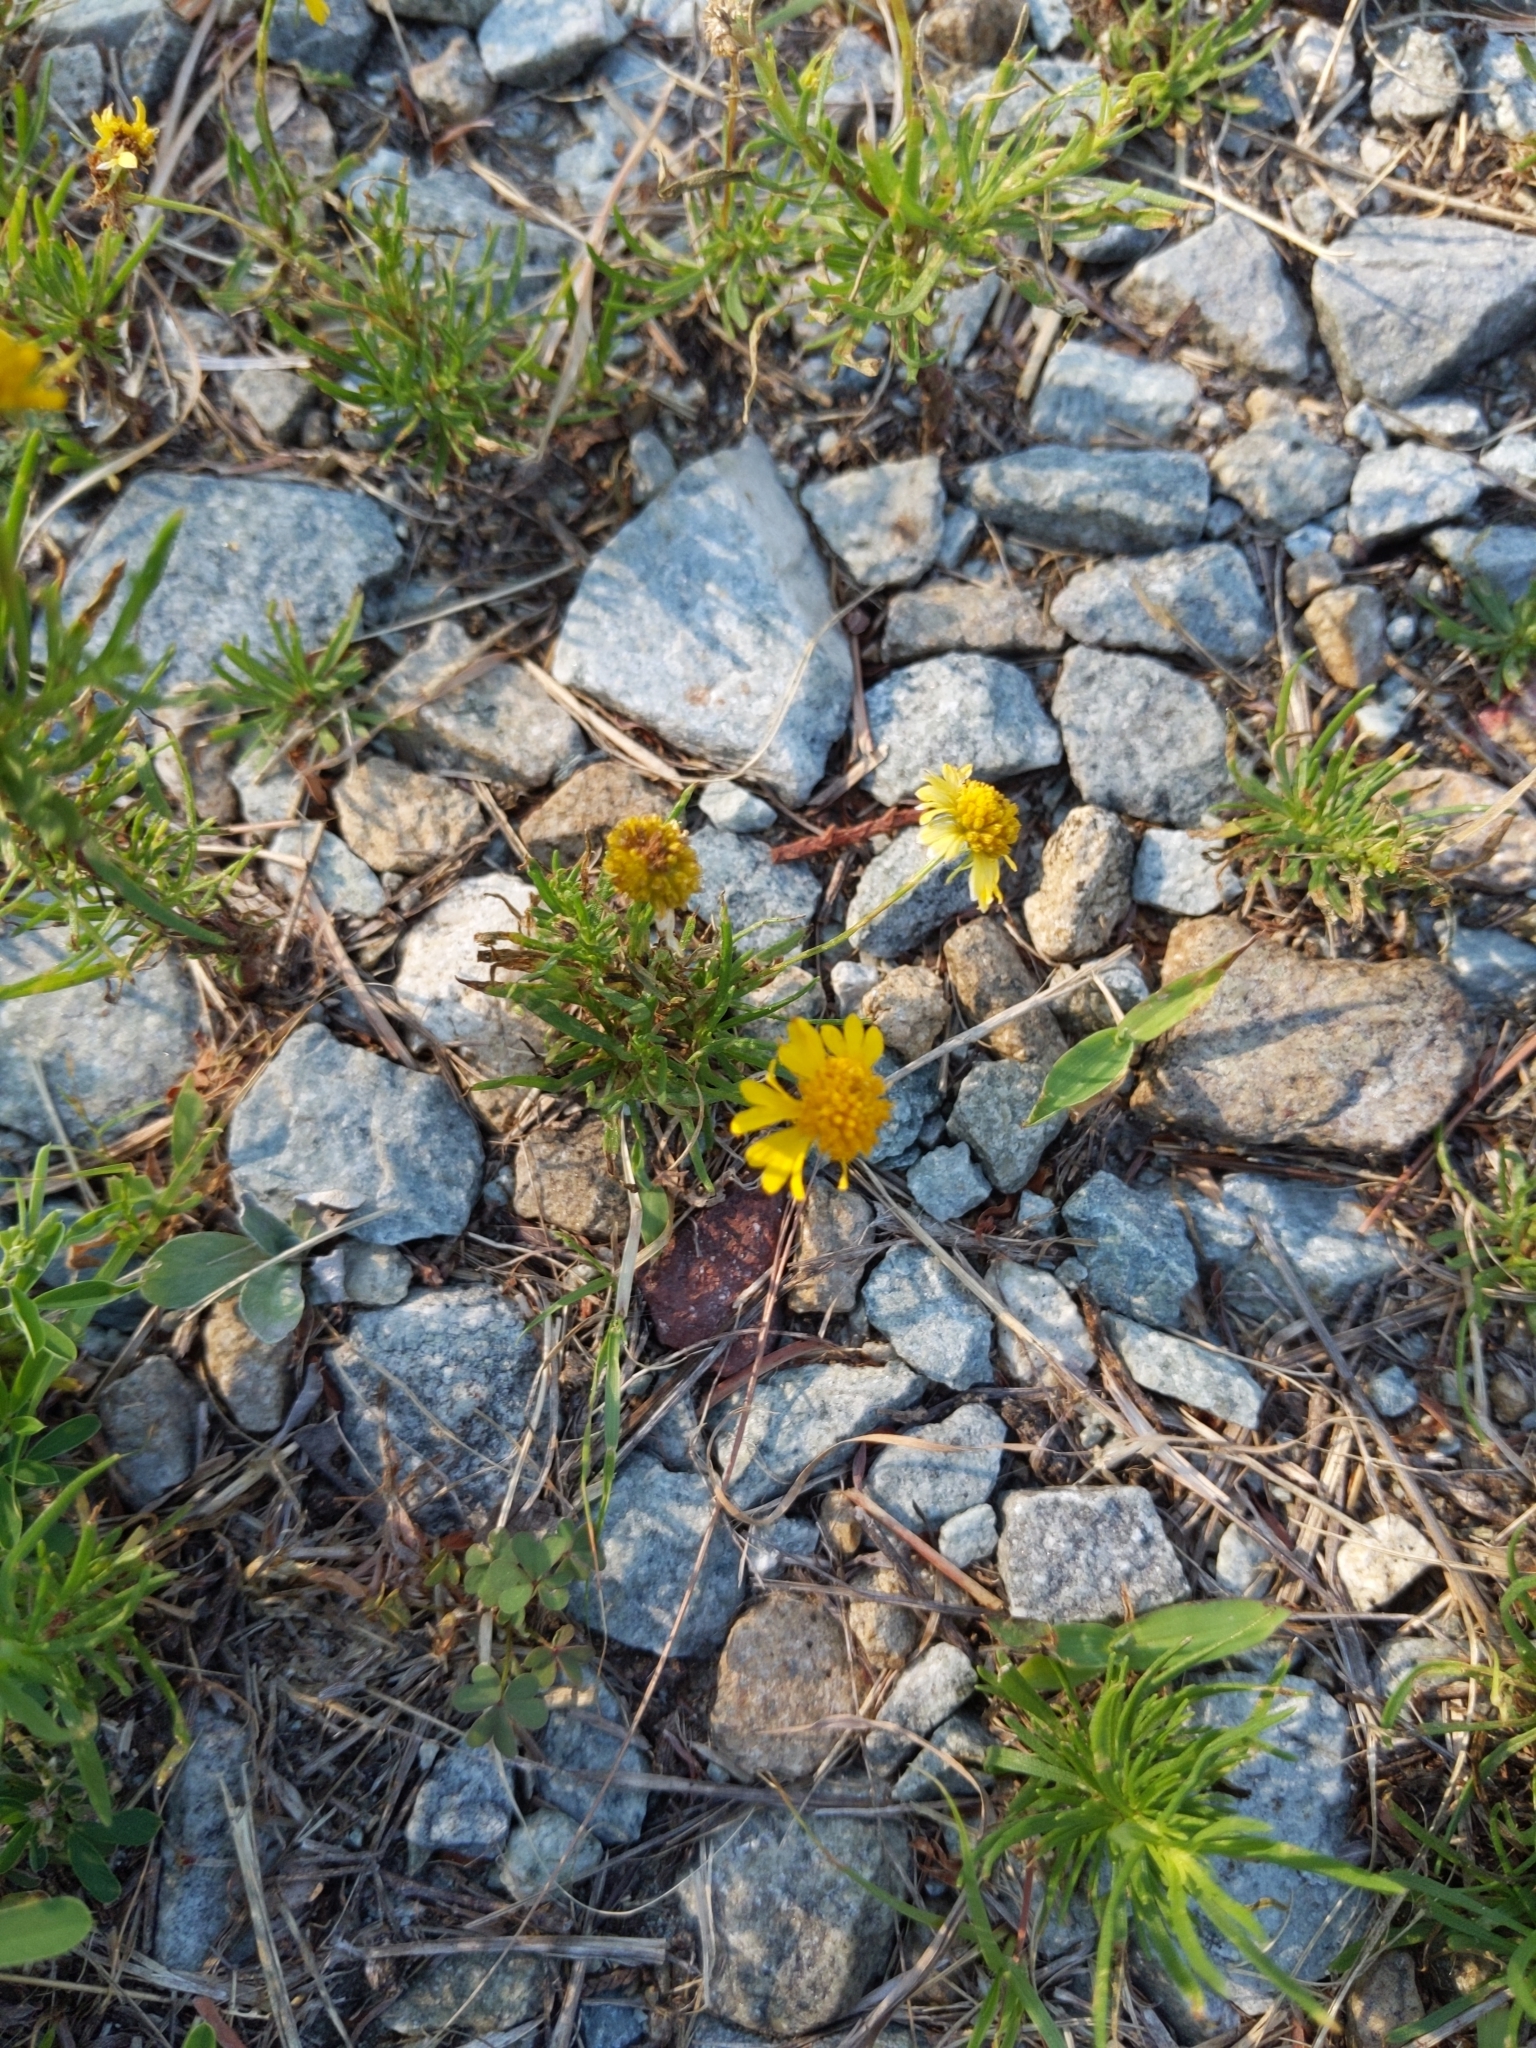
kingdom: Plantae
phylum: Tracheophyta
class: Magnoliopsida
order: Asterales
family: Asteraceae
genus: Helenium
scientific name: Helenium amarum
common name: Bitter sneezeweed
